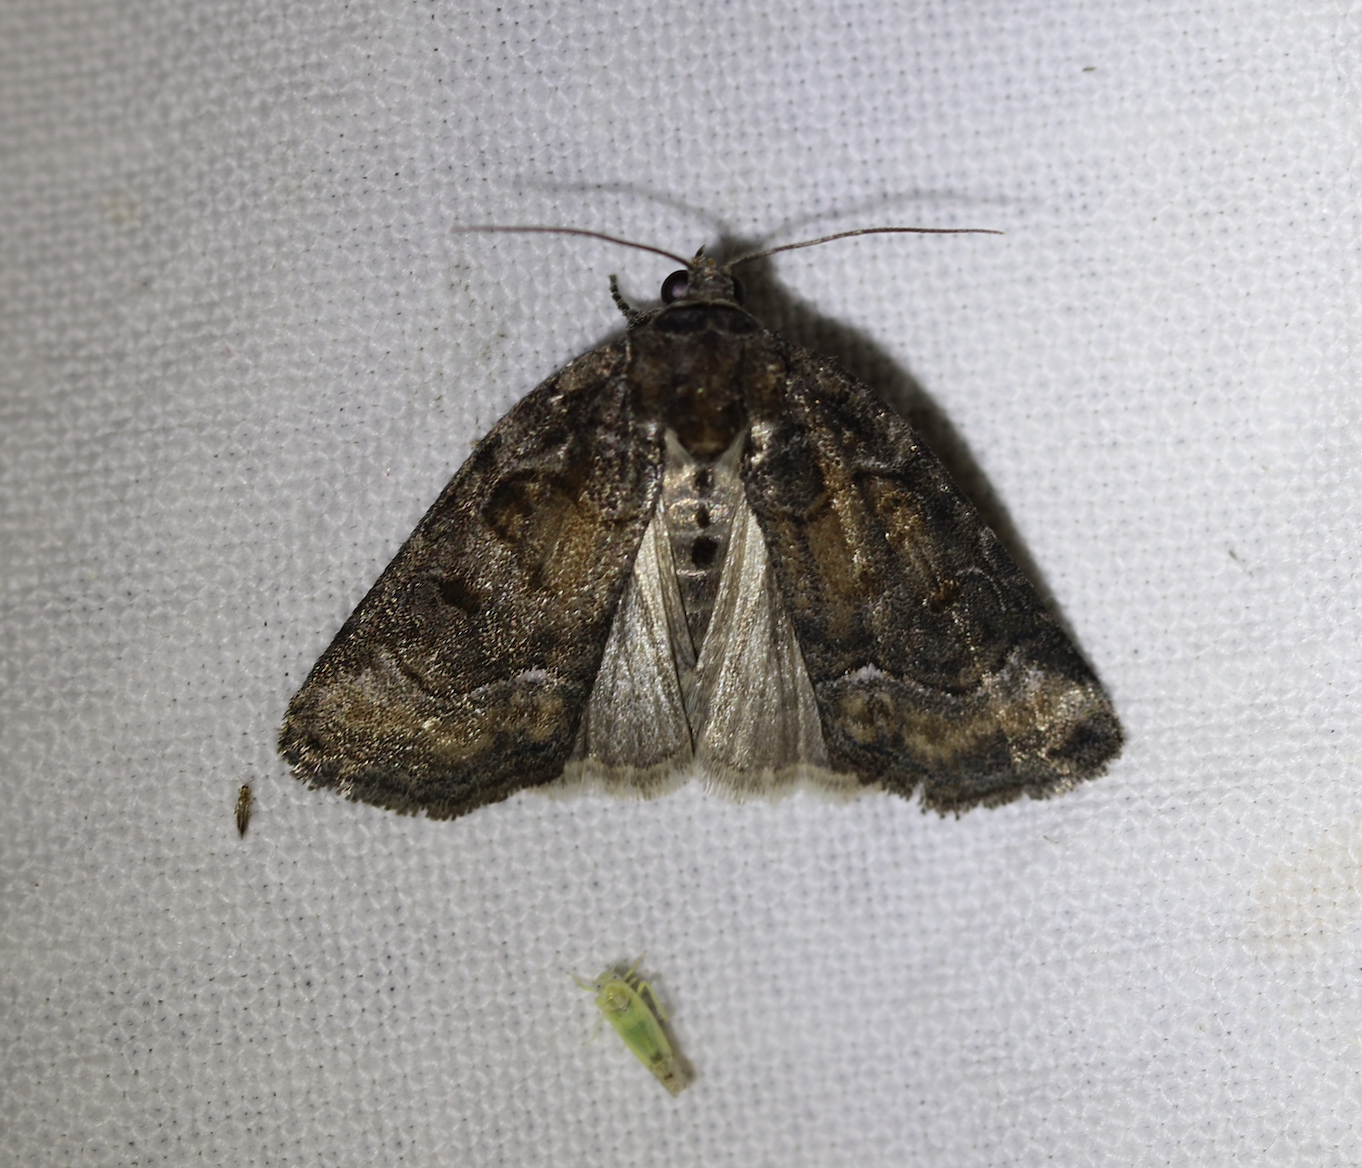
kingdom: Animalia
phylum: Arthropoda
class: Insecta
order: Lepidoptera
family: Noctuidae
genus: Cryphia
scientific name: Cryphia algae
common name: Tree-lichen beauty
